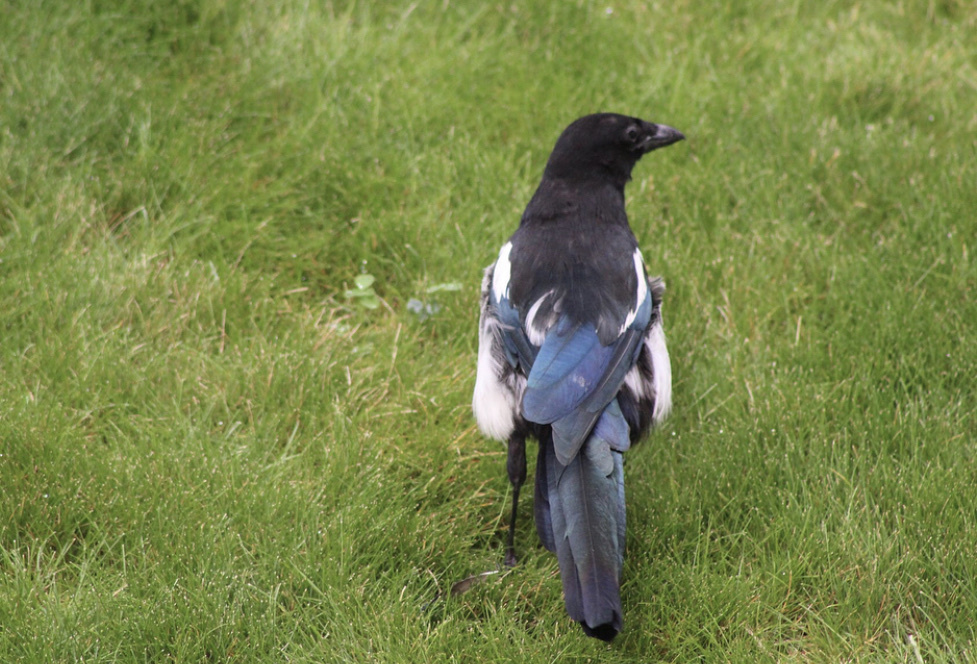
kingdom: Animalia
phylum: Chordata
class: Aves
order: Passeriformes
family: Corvidae
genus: Pica
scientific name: Pica hudsonia
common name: Black-billed magpie
